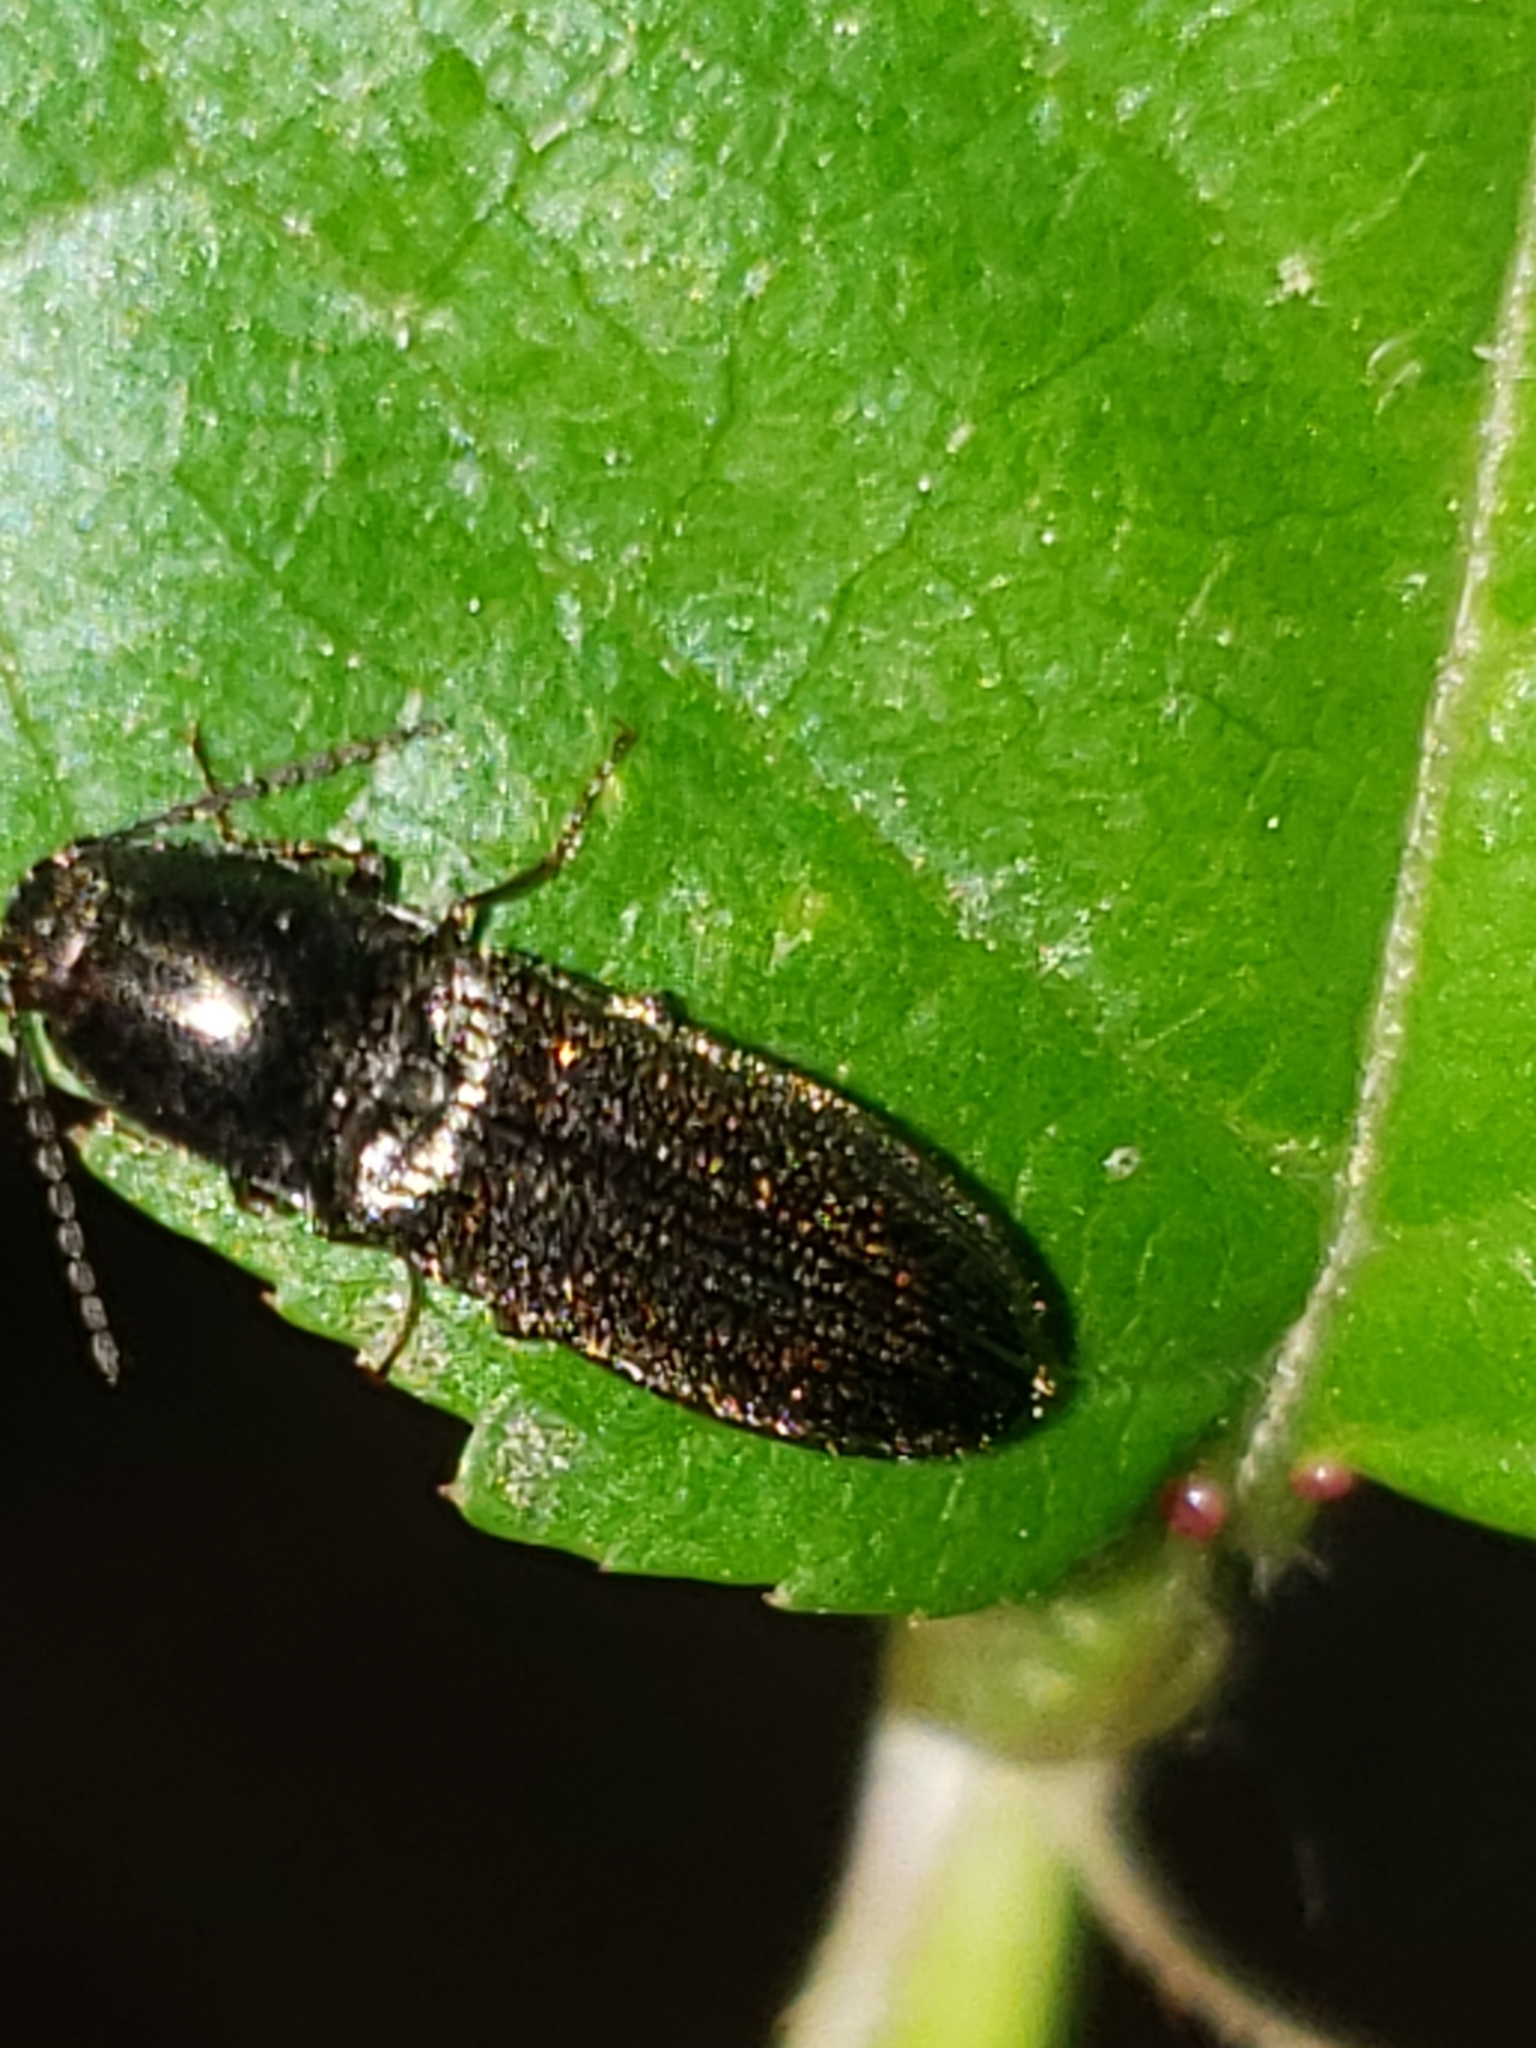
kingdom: Animalia
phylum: Arthropoda
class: Insecta
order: Coleoptera
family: Elateridae
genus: Limonius
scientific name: Limonius quercinus
